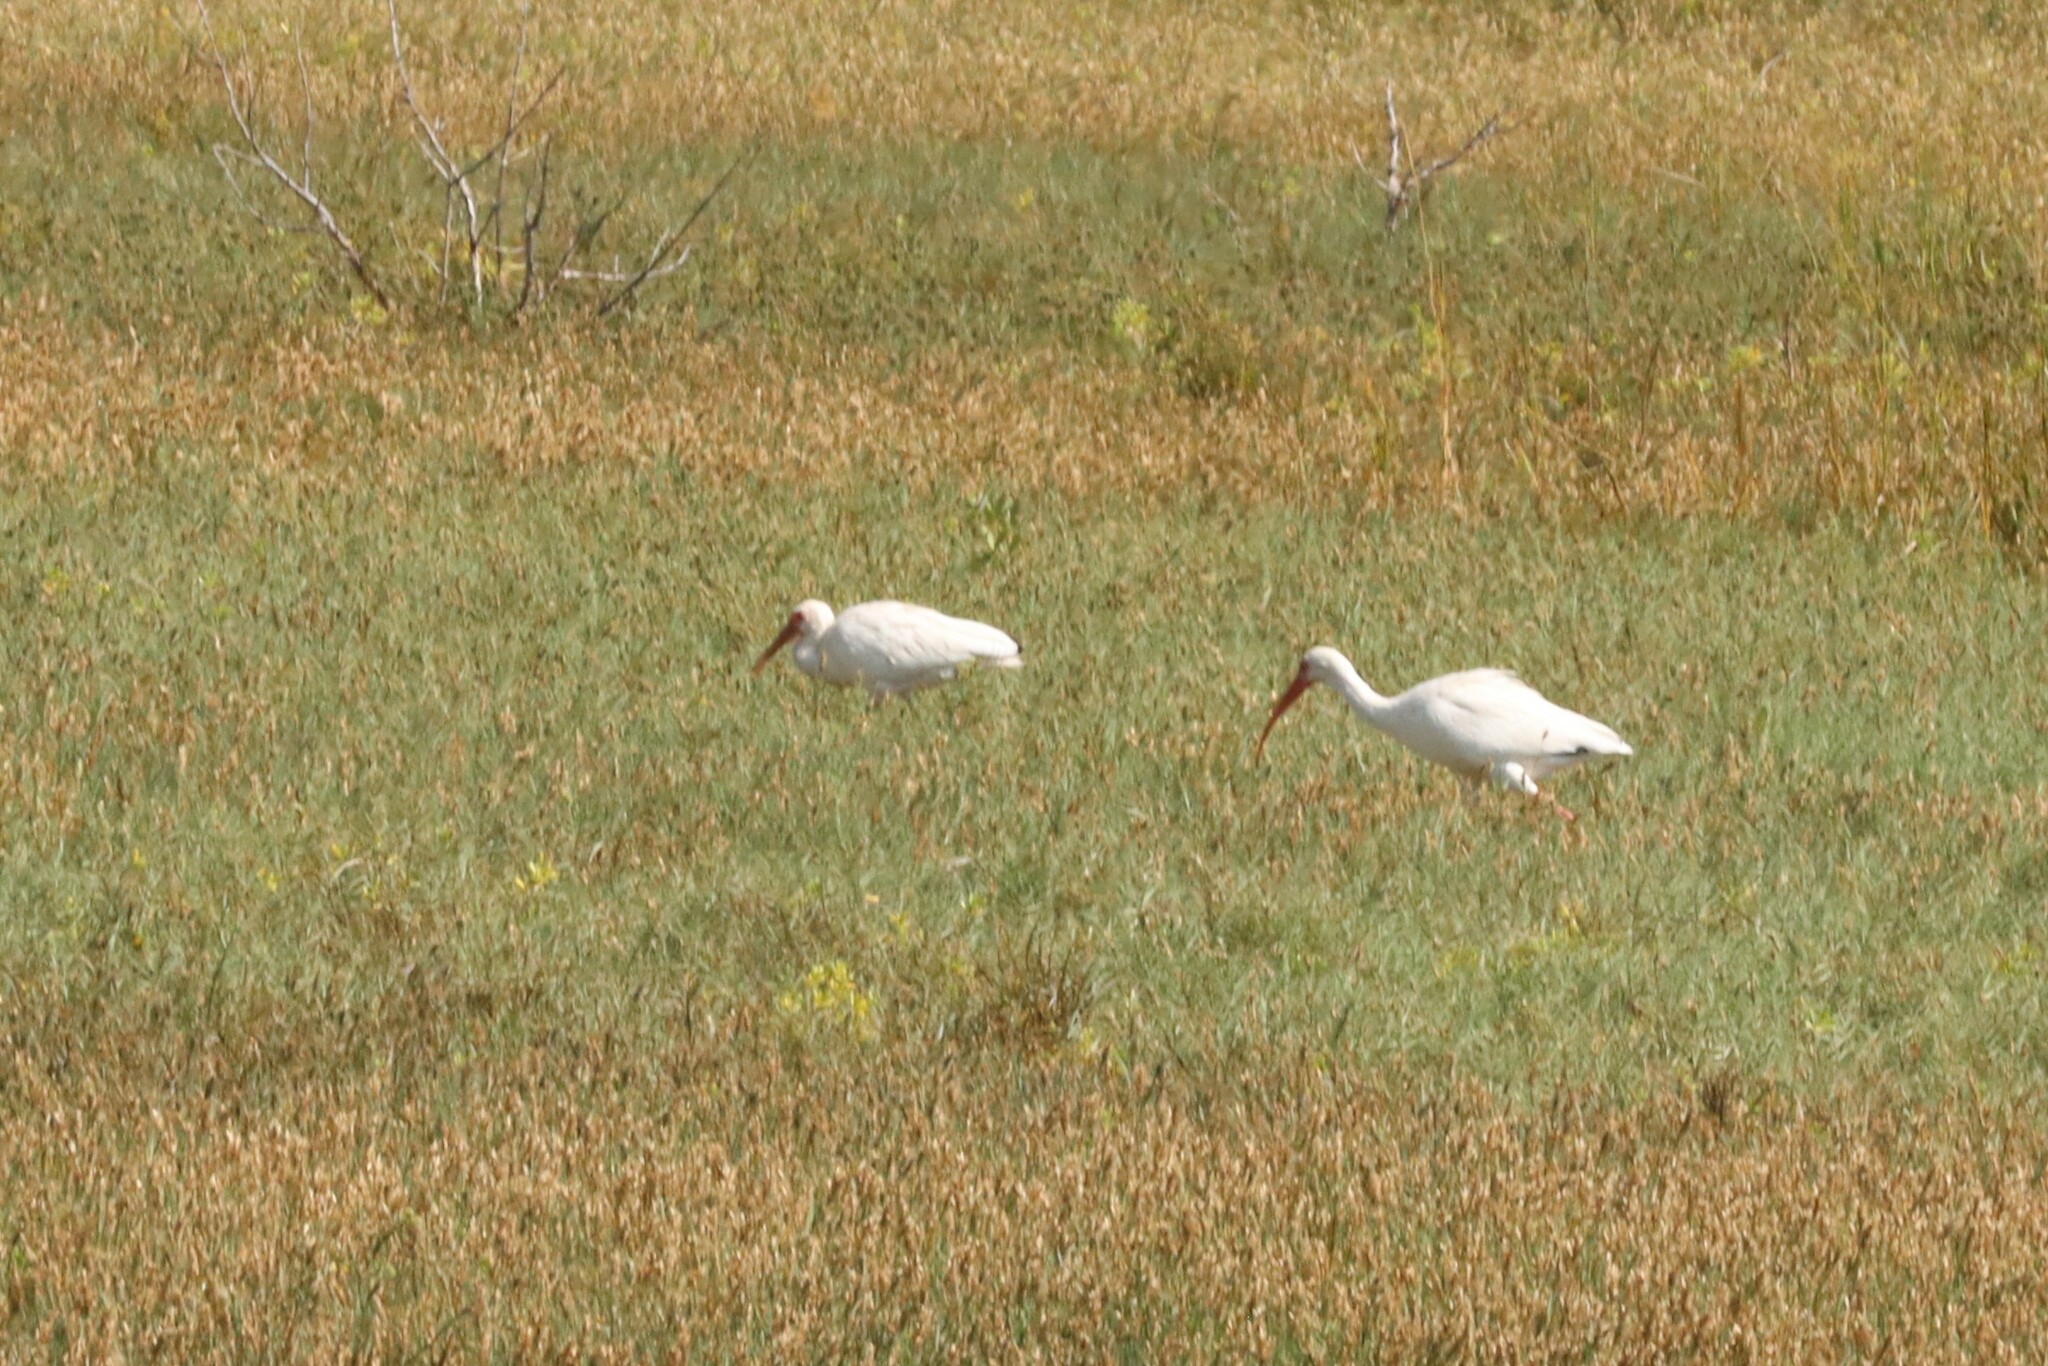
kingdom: Animalia
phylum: Chordata
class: Aves
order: Pelecaniformes
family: Threskiornithidae
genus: Eudocimus
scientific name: Eudocimus albus
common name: White ibis
